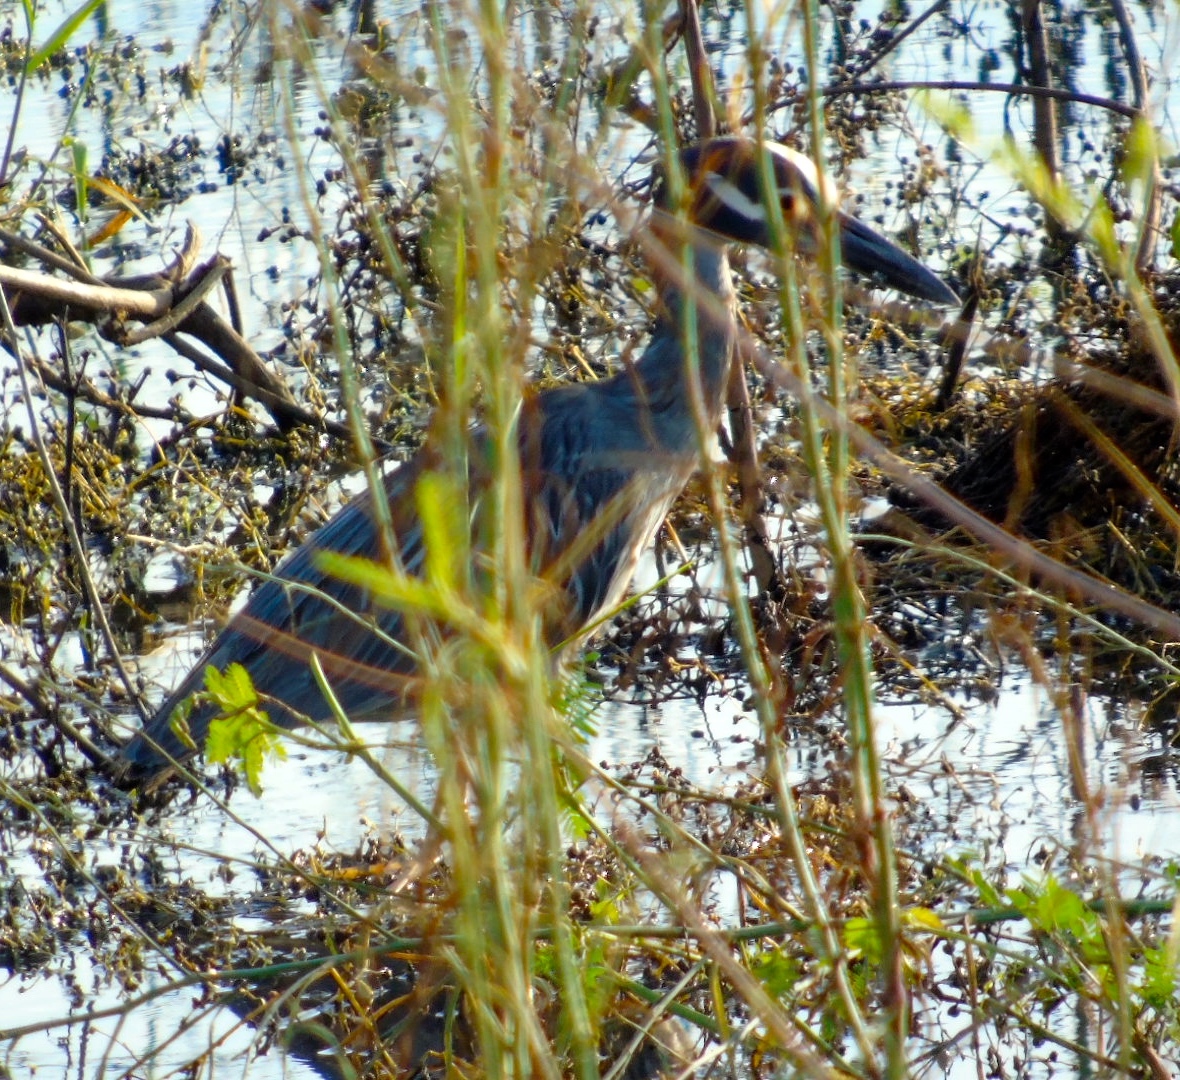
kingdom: Animalia
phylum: Chordata
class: Aves
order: Pelecaniformes
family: Ardeidae
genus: Nyctanassa
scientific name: Nyctanassa violacea
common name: Yellow-crowned night heron
